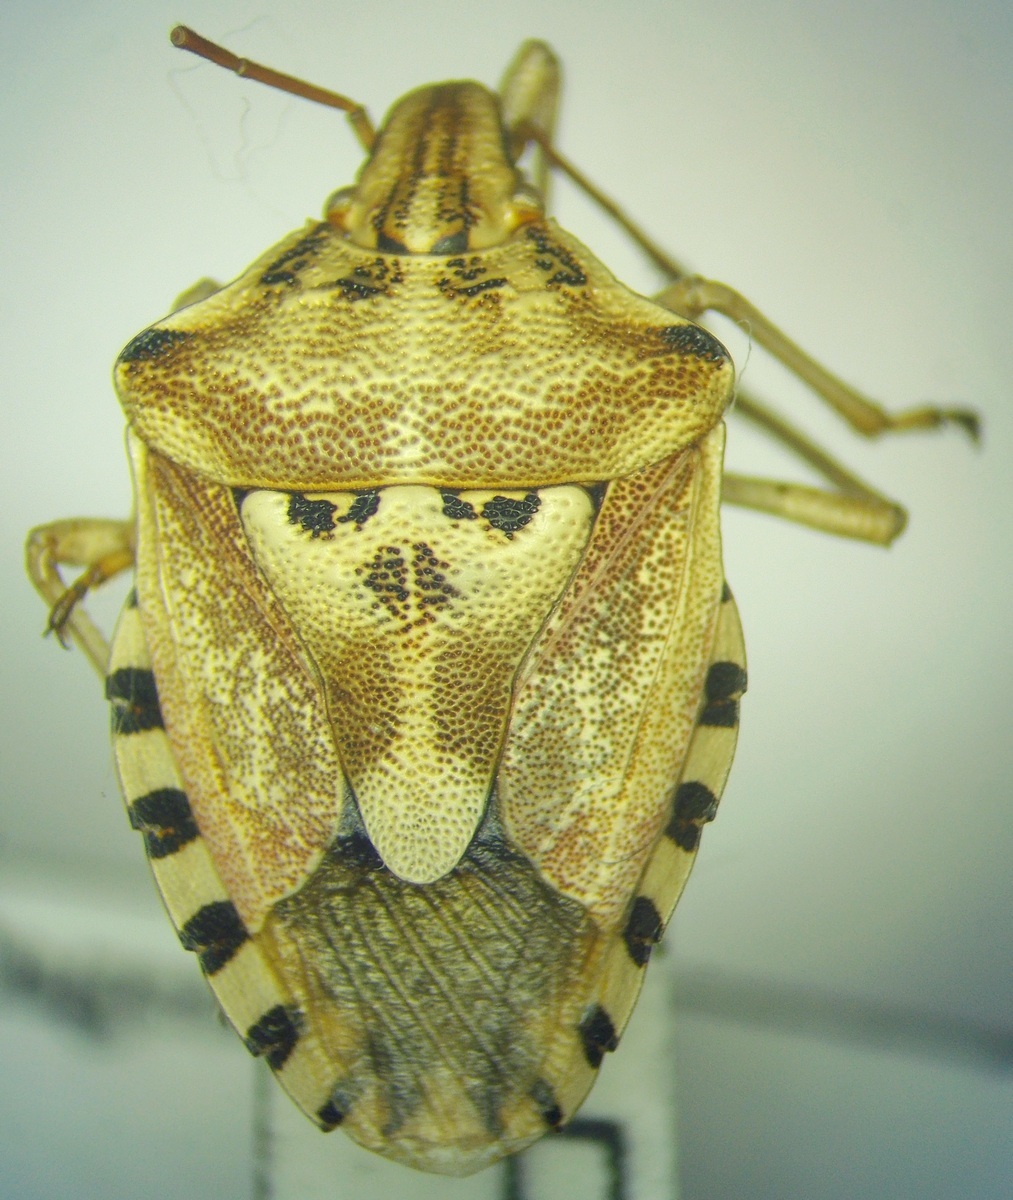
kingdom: Animalia
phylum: Arthropoda
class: Insecta
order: Hemiptera
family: Miridae
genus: Orthops
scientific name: Orthops kalmii
